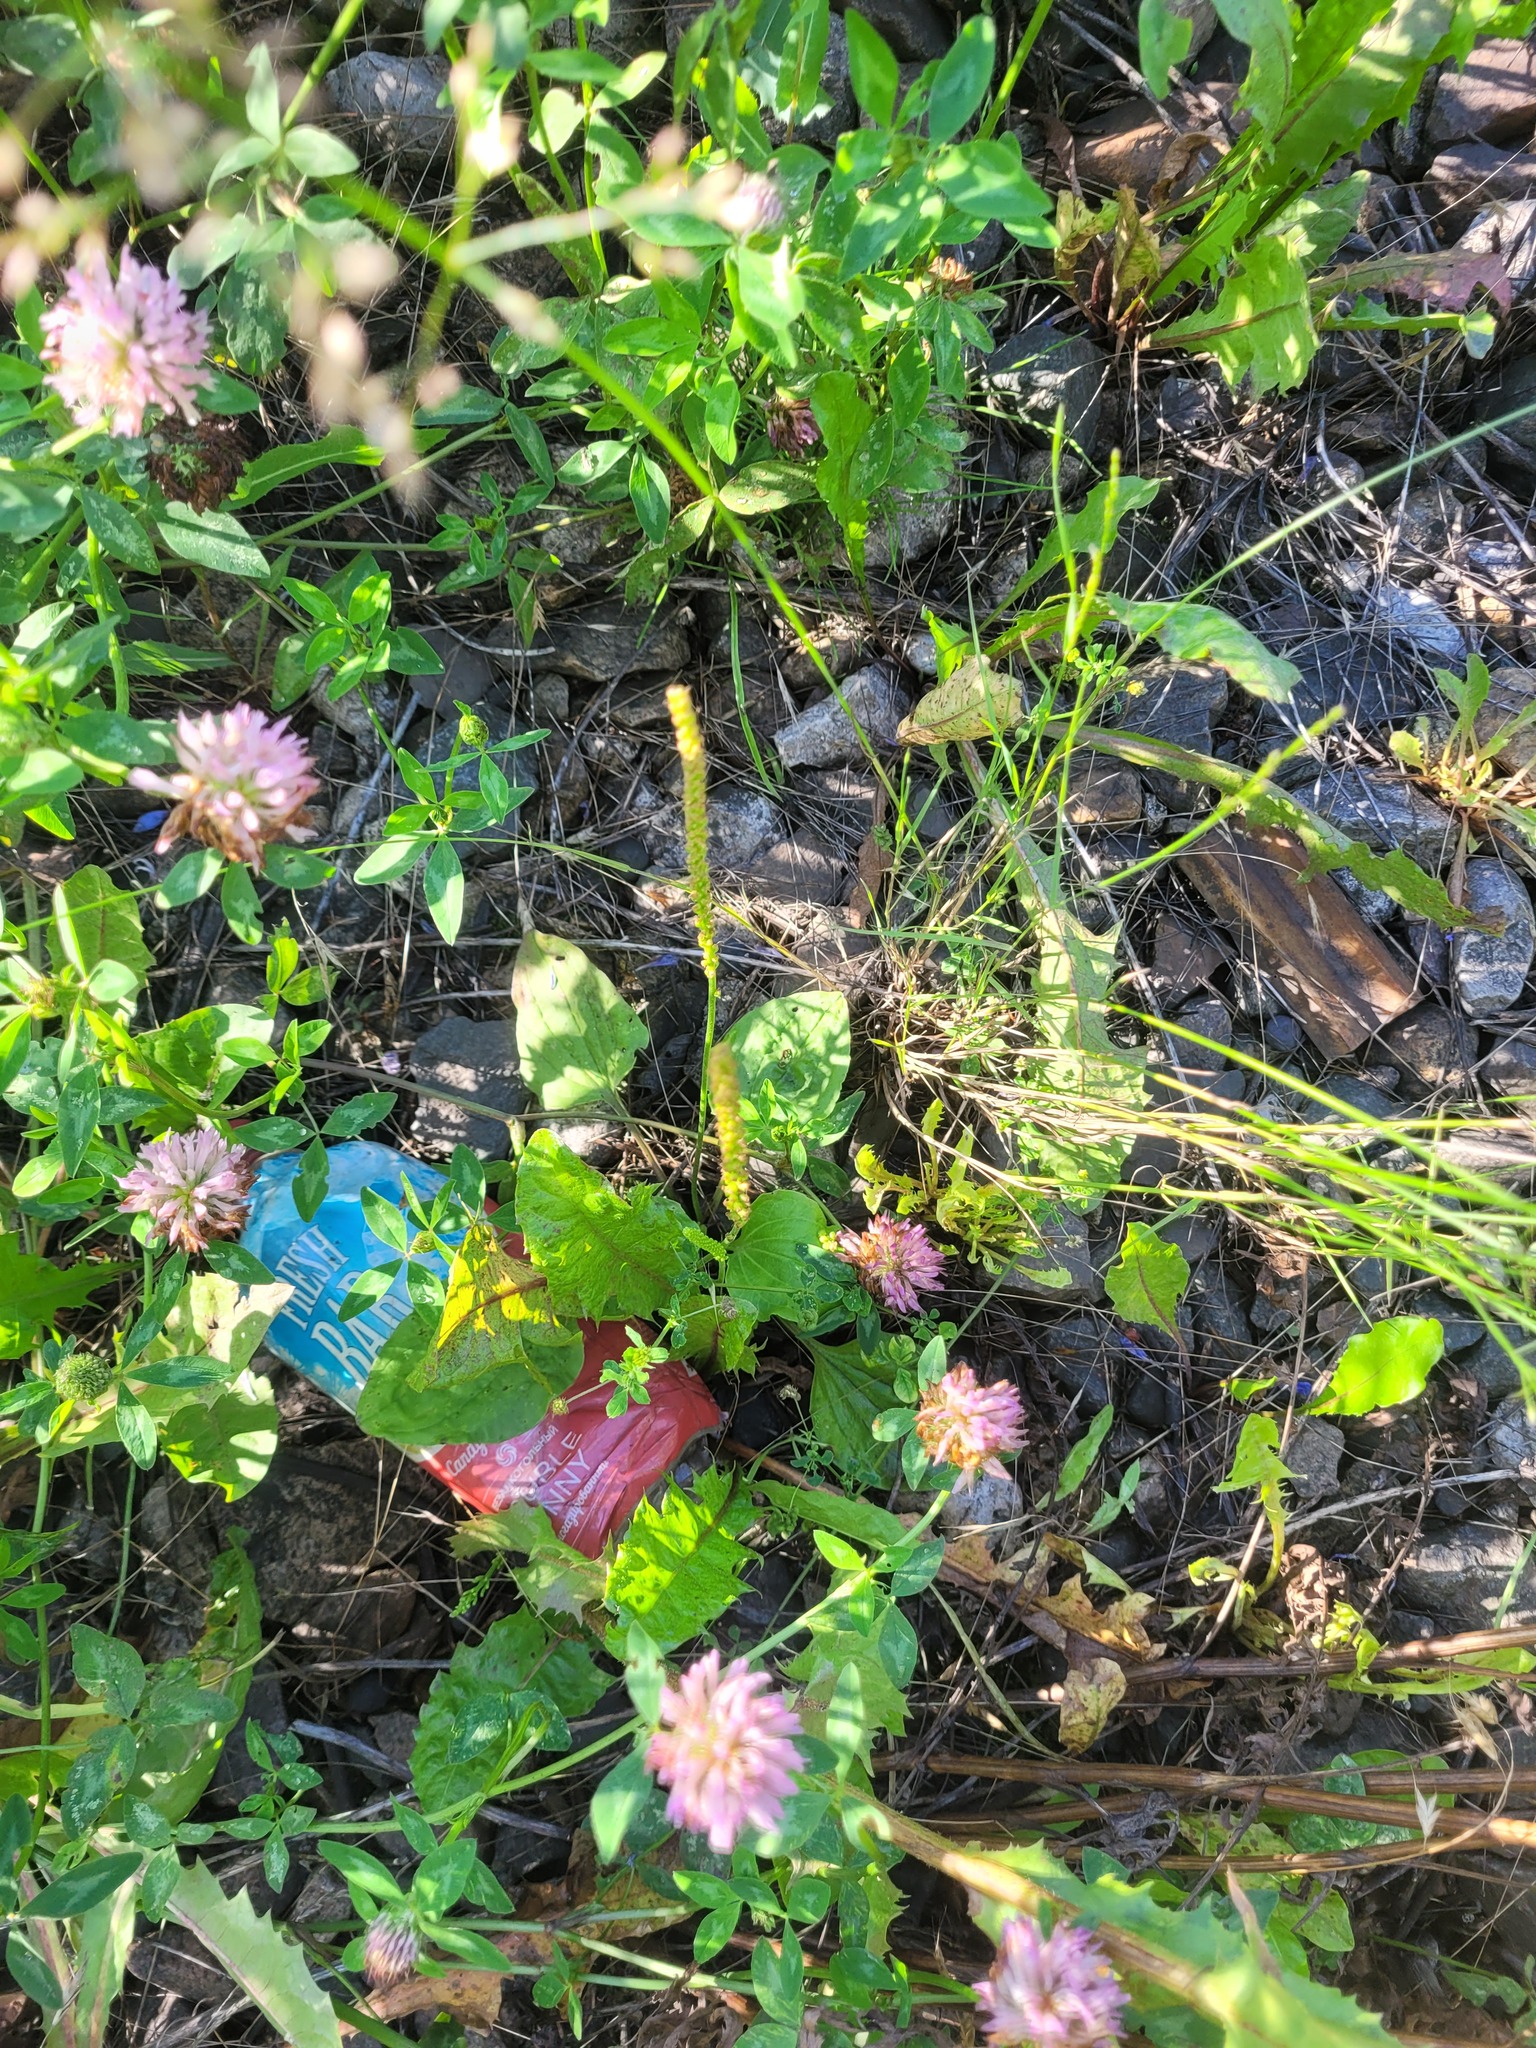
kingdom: Plantae
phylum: Tracheophyta
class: Magnoliopsida
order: Lamiales
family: Plantaginaceae
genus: Plantago
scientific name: Plantago major
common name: Common plantain
